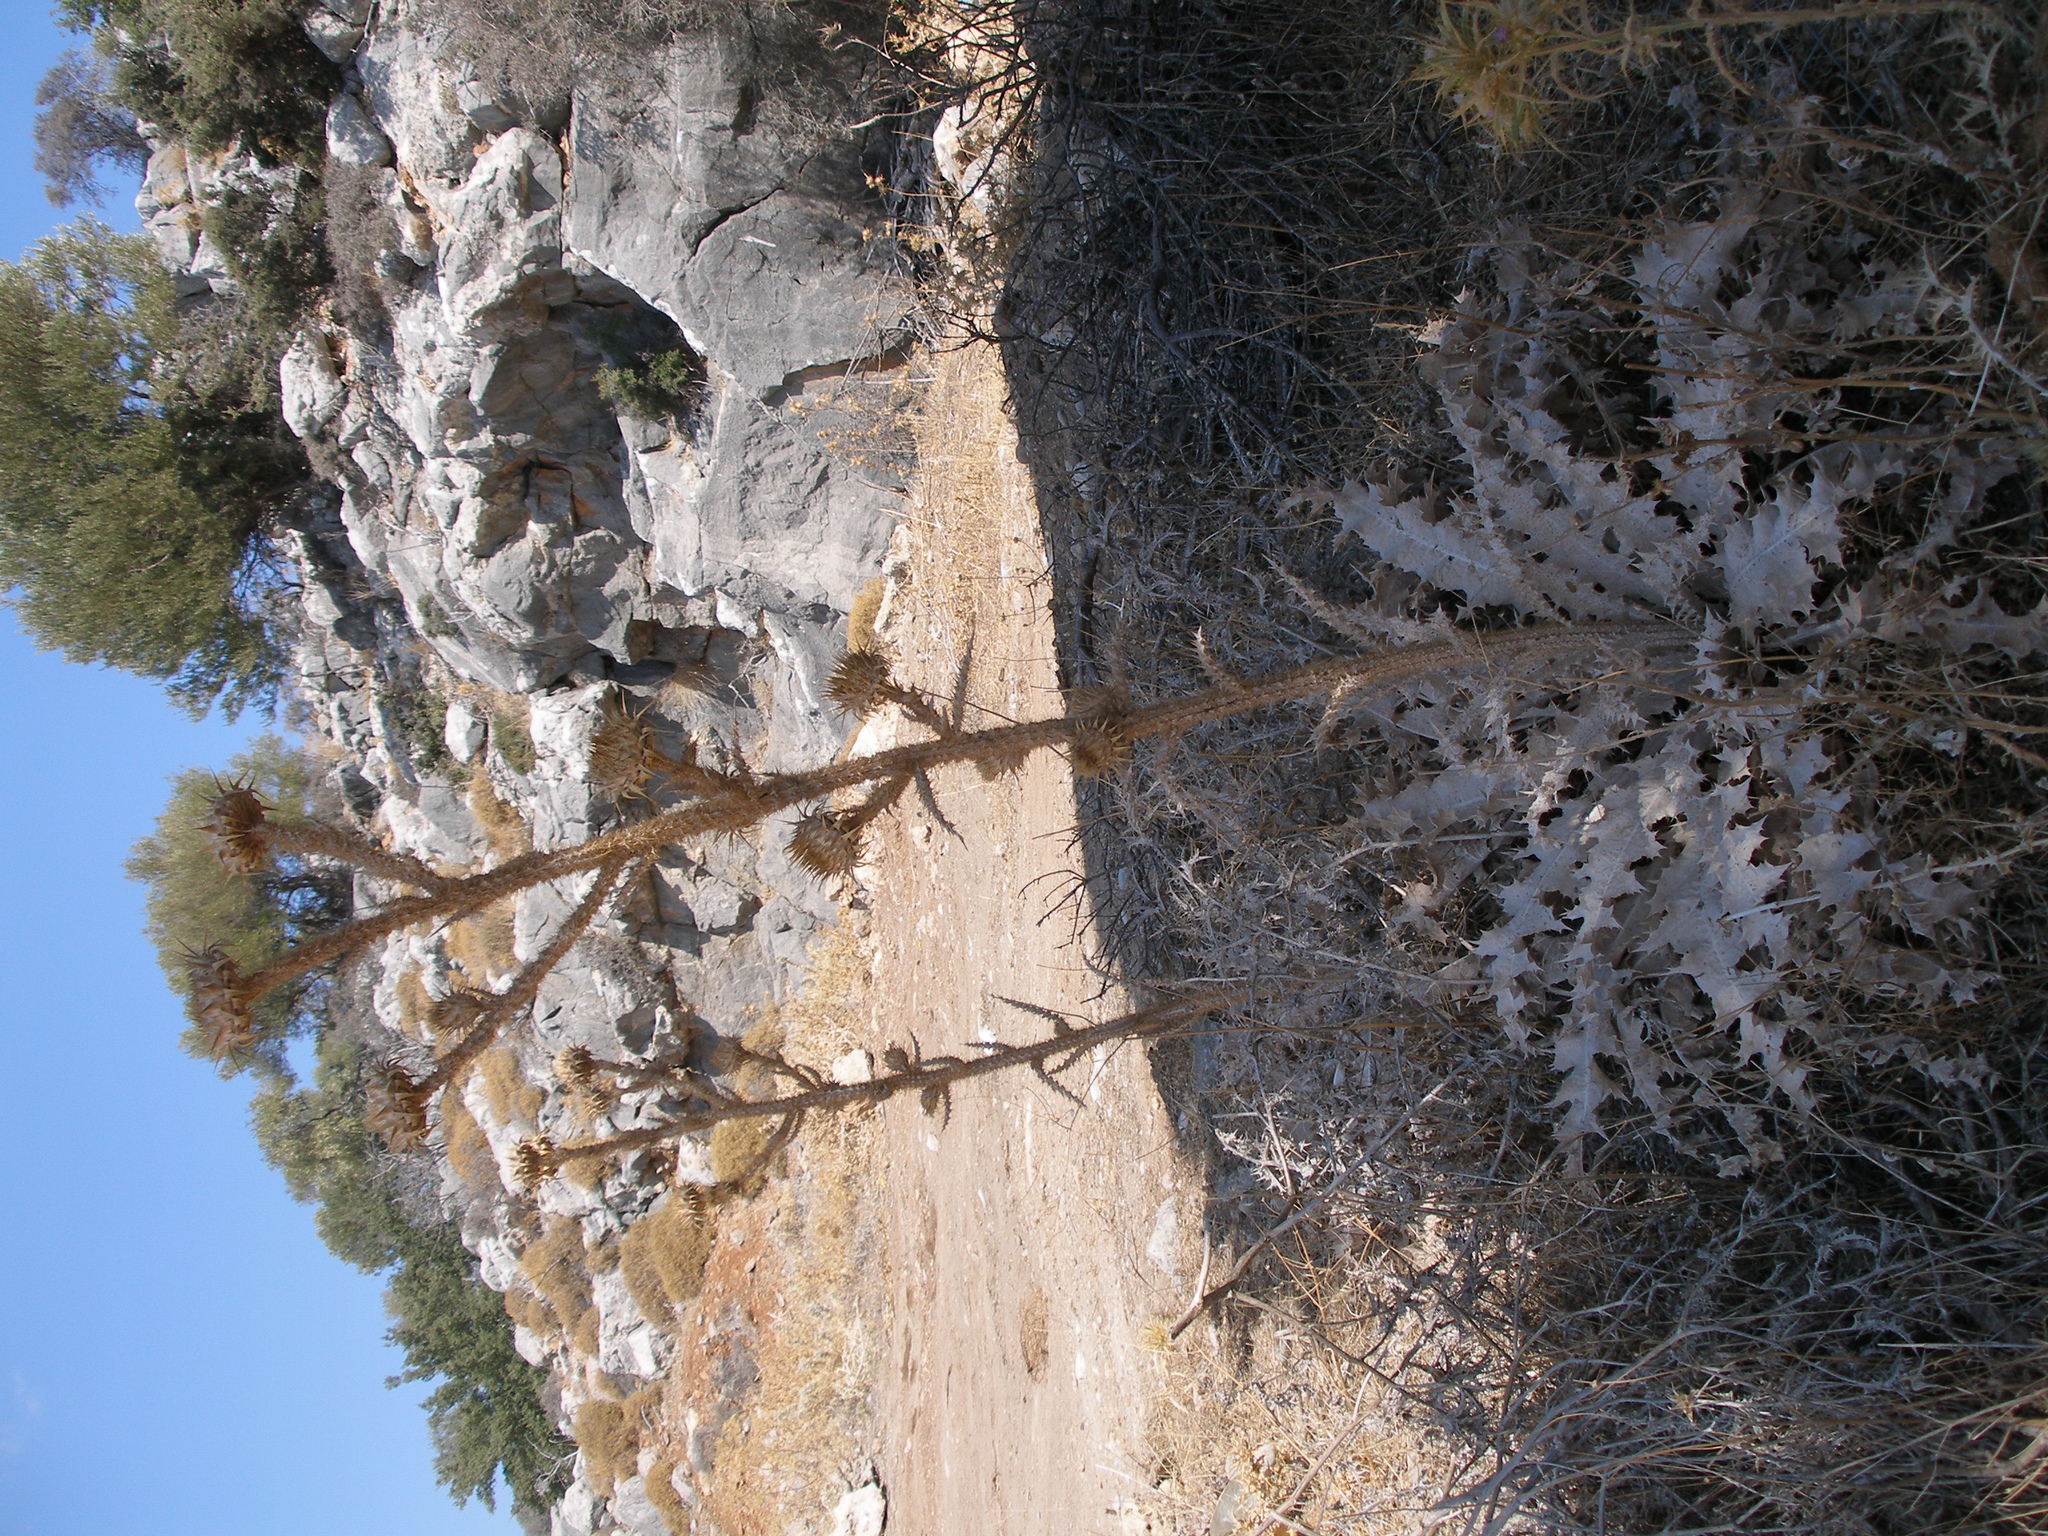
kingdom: Plantae
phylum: Tracheophyta
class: Magnoliopsida
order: Asterales
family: Asteraceae
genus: Onopordum
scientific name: Onopordum bracteatum
